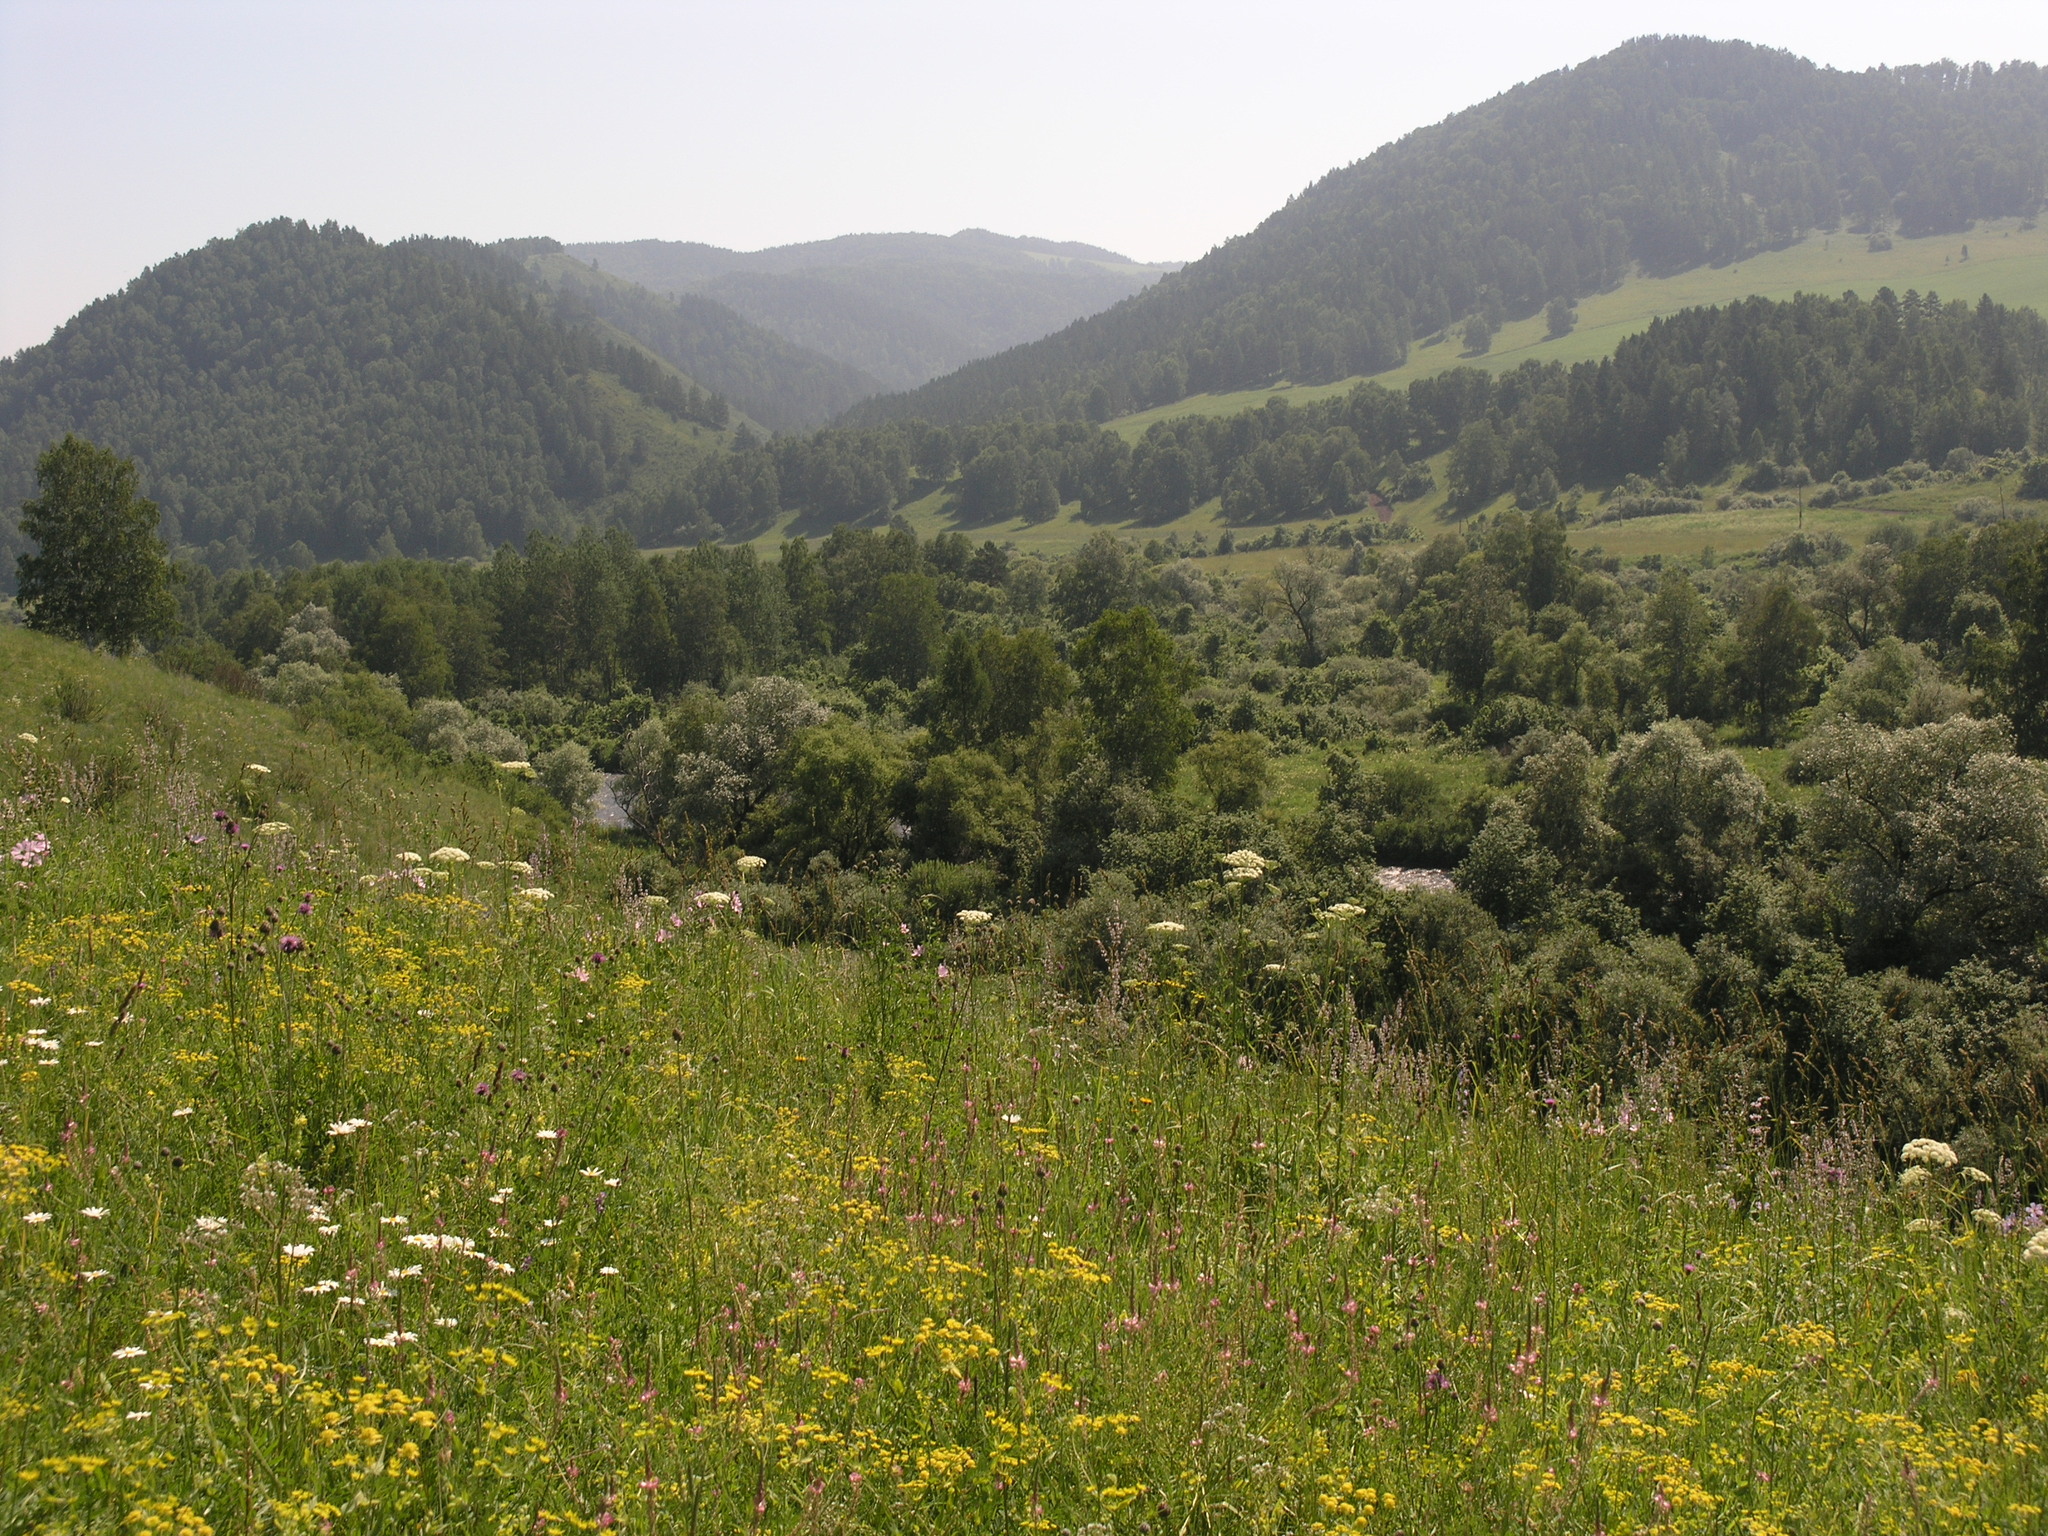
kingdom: Plantae
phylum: Tracheophyta
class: Magnoliopsida
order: Apiales
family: Apiaceae
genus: Bupleurum
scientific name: Bupleurum multinerve
